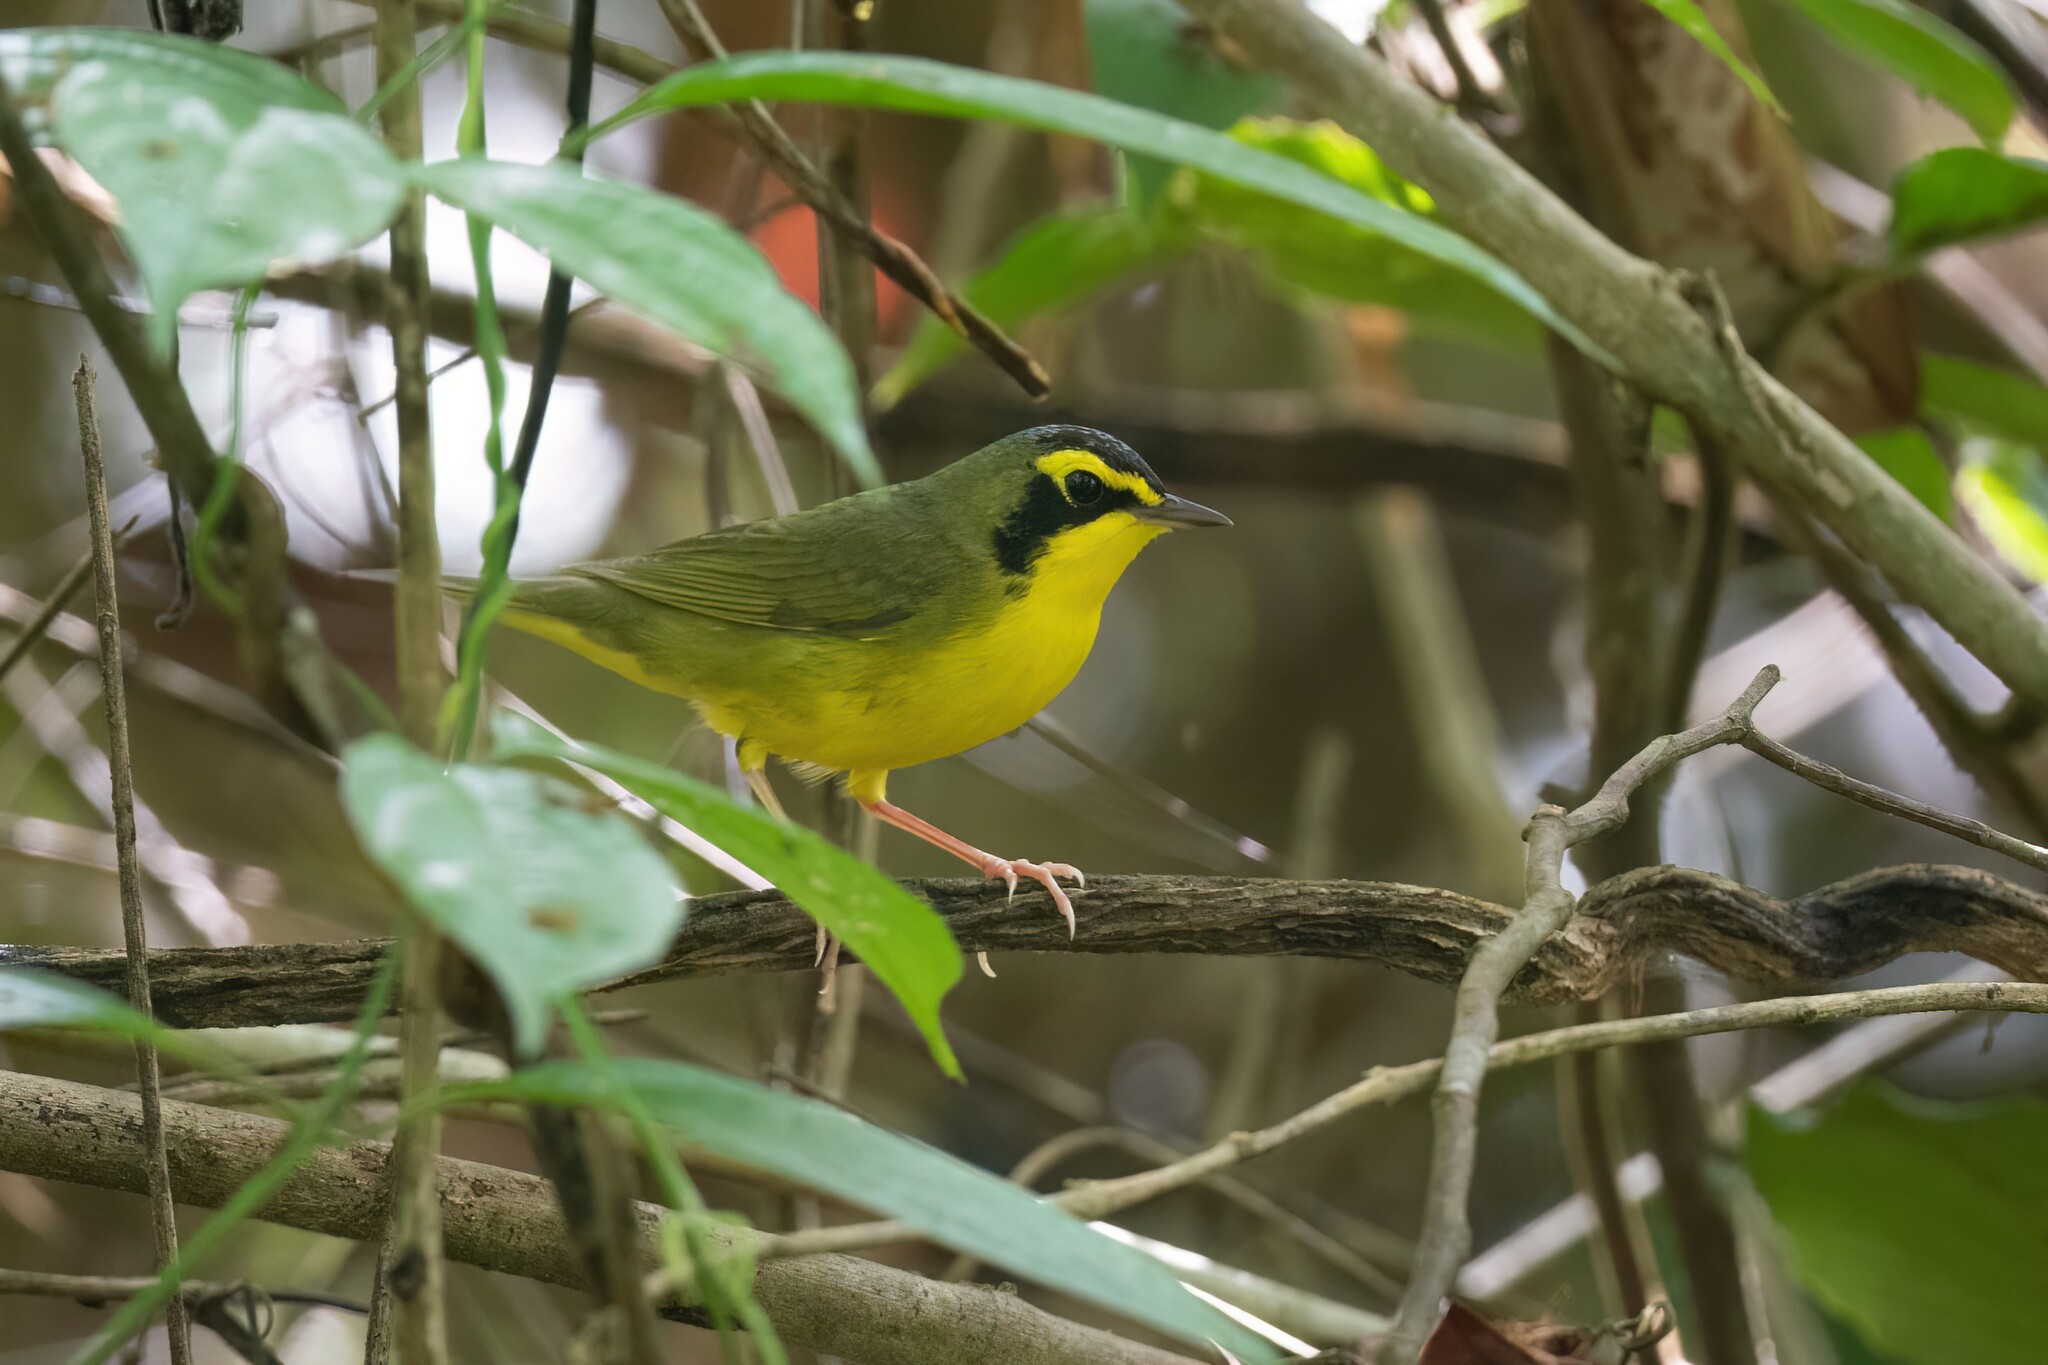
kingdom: Animalia
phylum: Chordata
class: Aves
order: Passeriformes
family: Parulidae
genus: Geothlypis
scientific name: Geothlypis formosa
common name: Kentucky warbler
